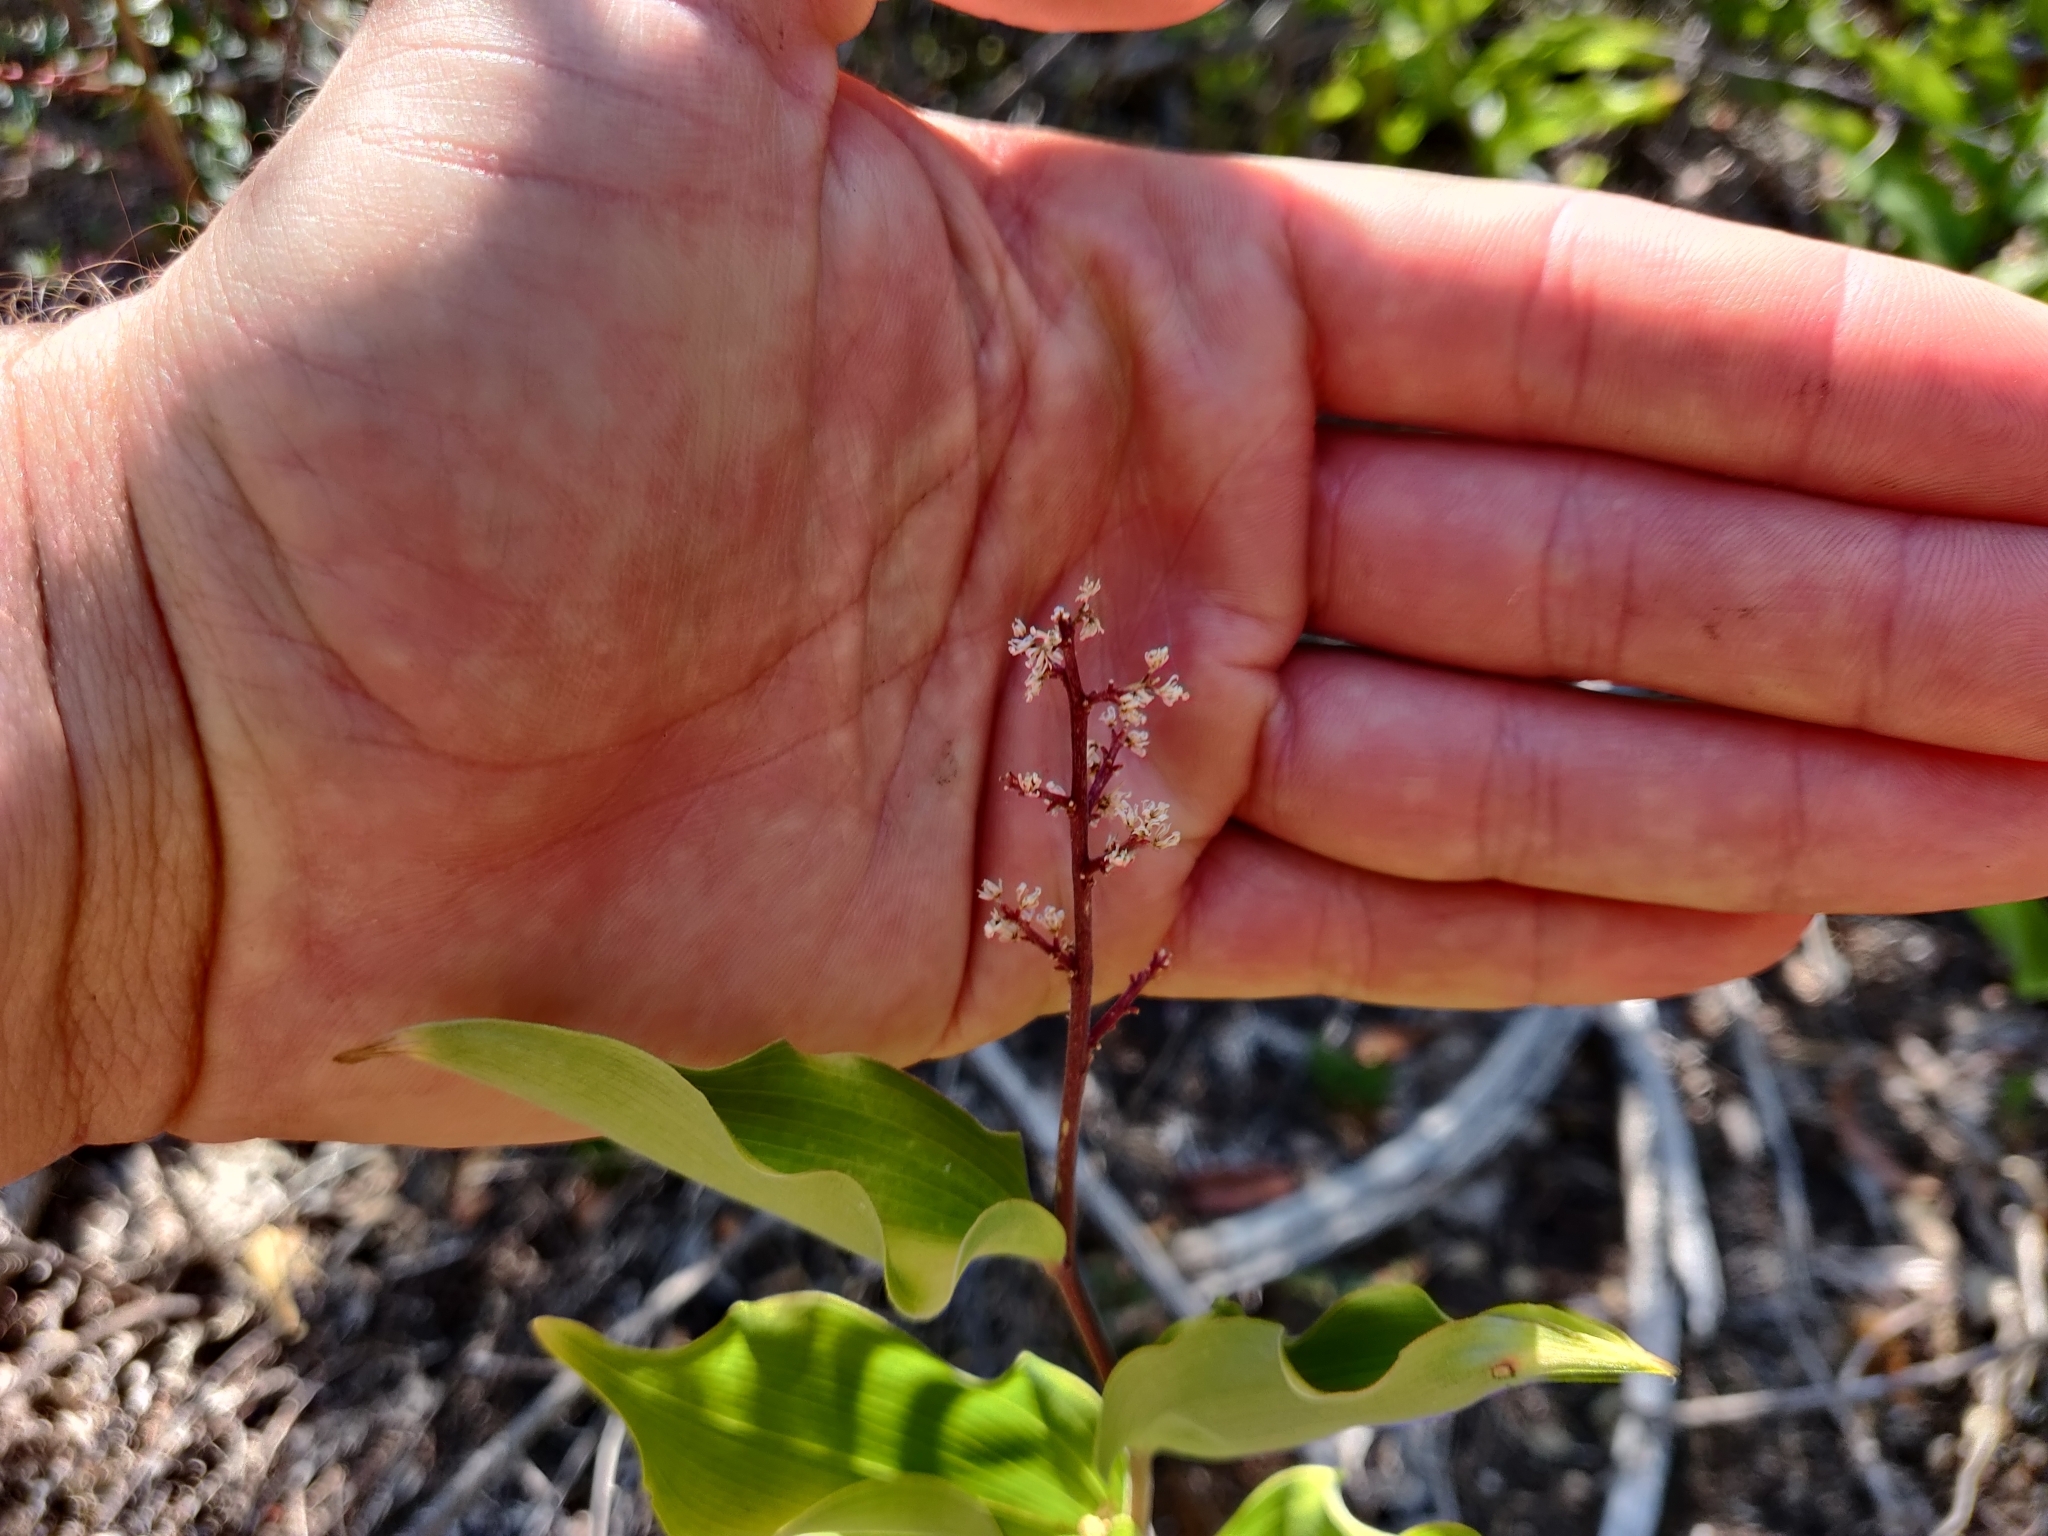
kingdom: Plantae
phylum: Tracheophyta
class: Liliopsida
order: Asparagales
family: Asparagaceae
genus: Maianthemum
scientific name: Maianthemum racemosum
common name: False spikenard
